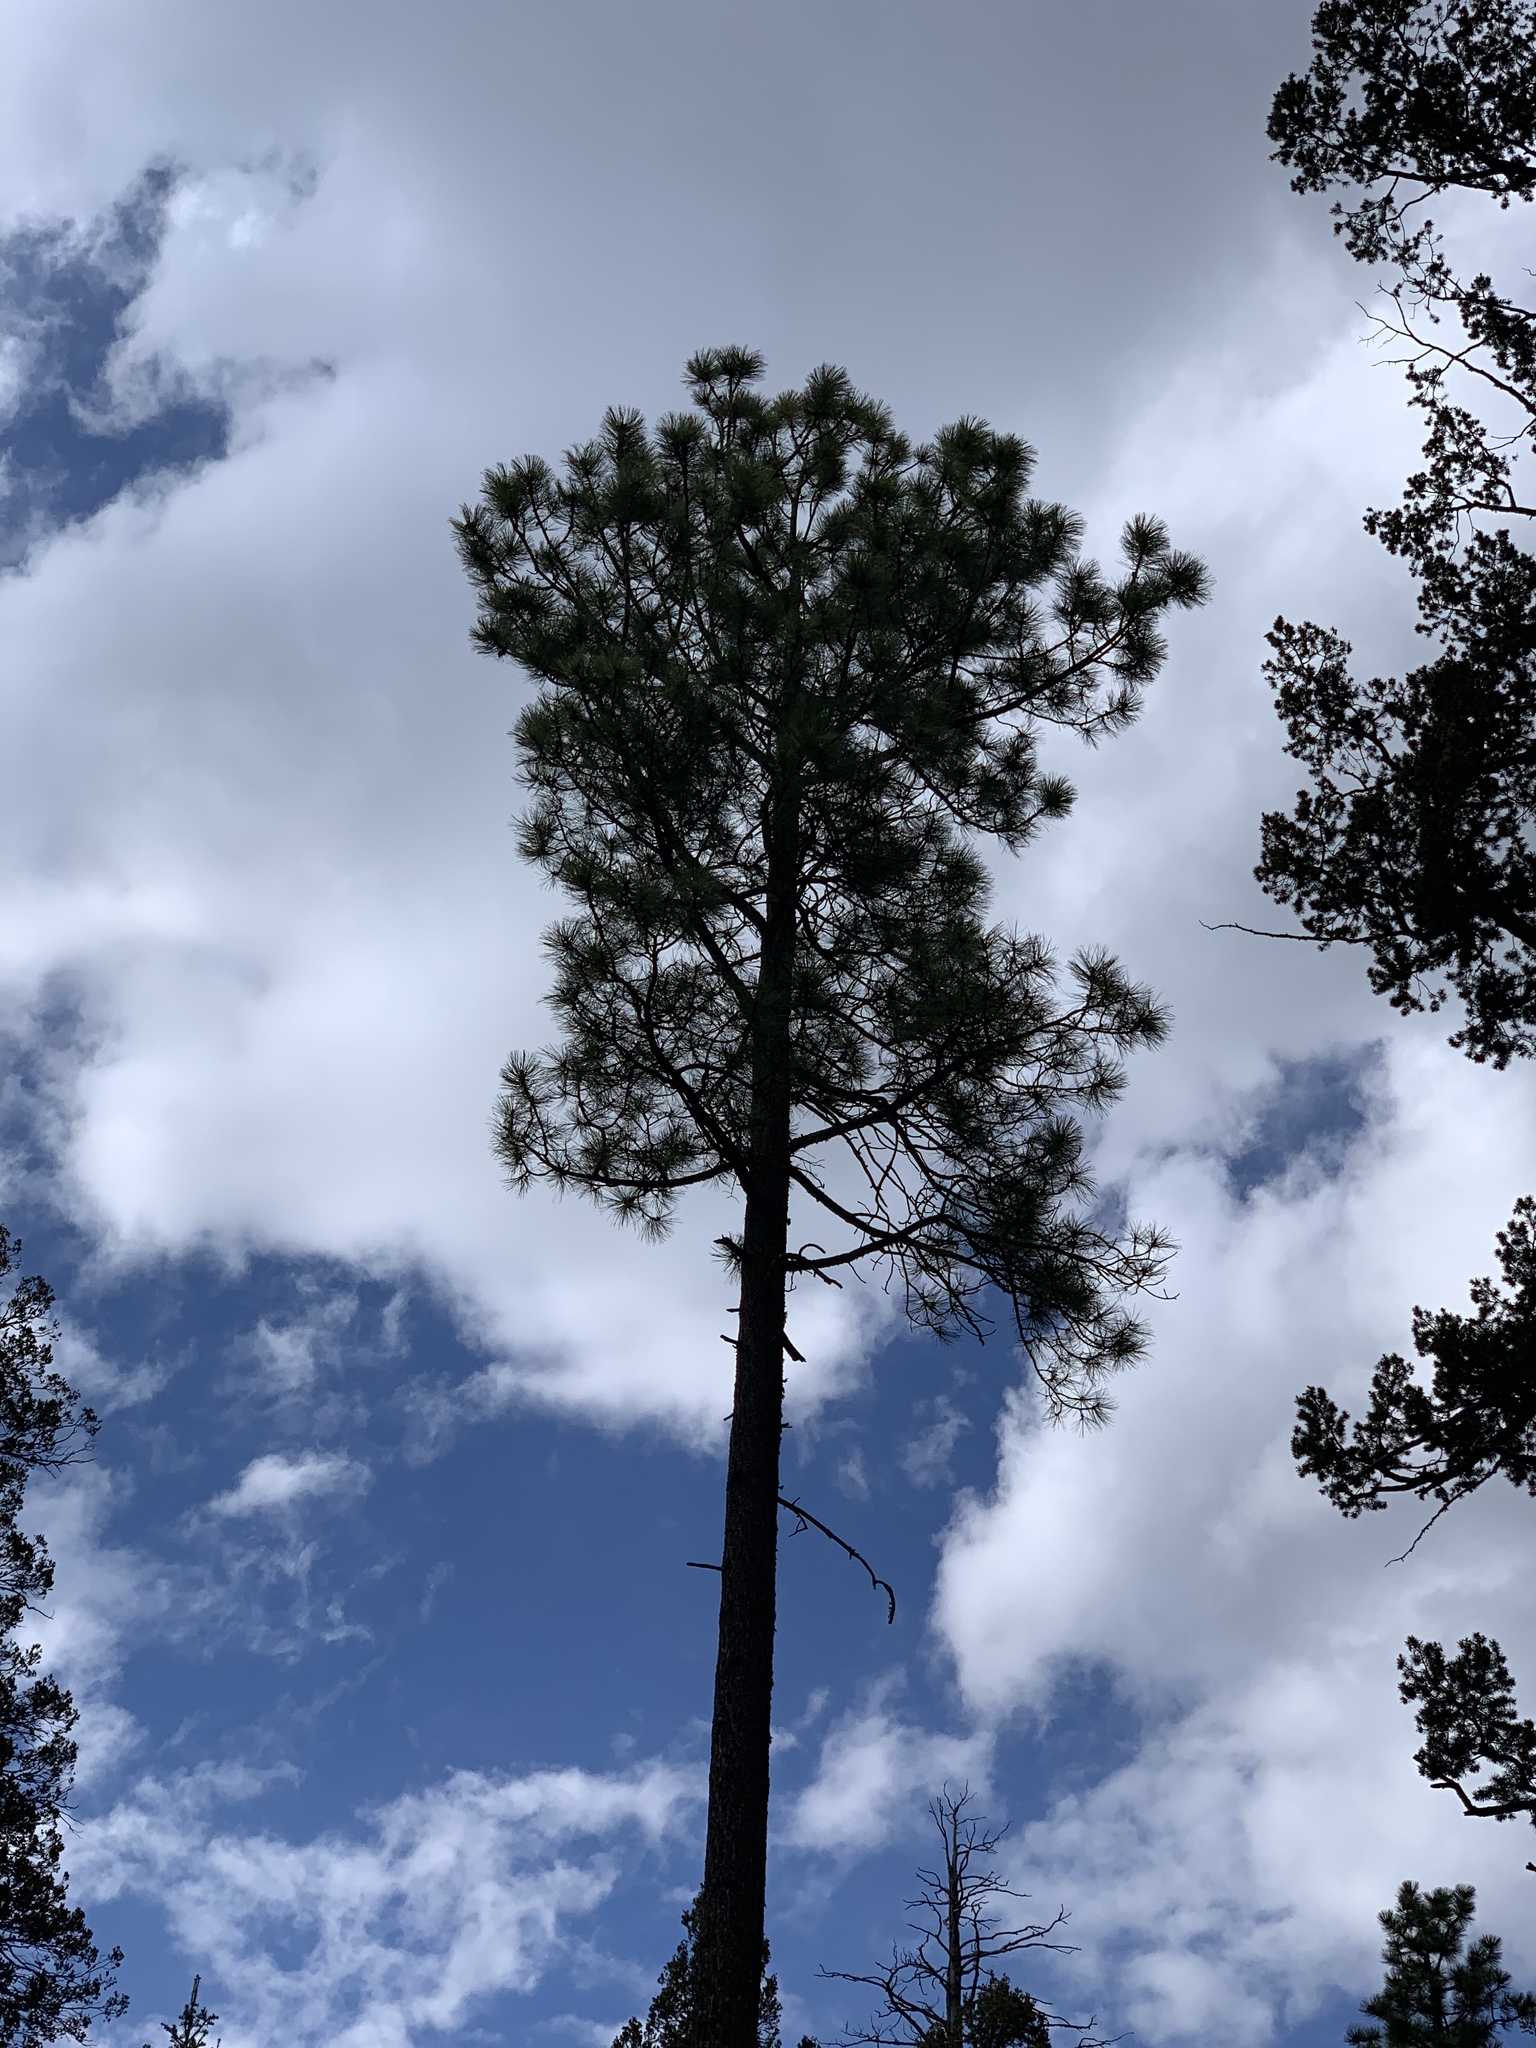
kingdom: Plantae
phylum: Tracheophyta
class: Pinopsida
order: Pinales
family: Pinaceae
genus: Pinus
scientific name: Pinus ponderosa
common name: Western yellow-pine
